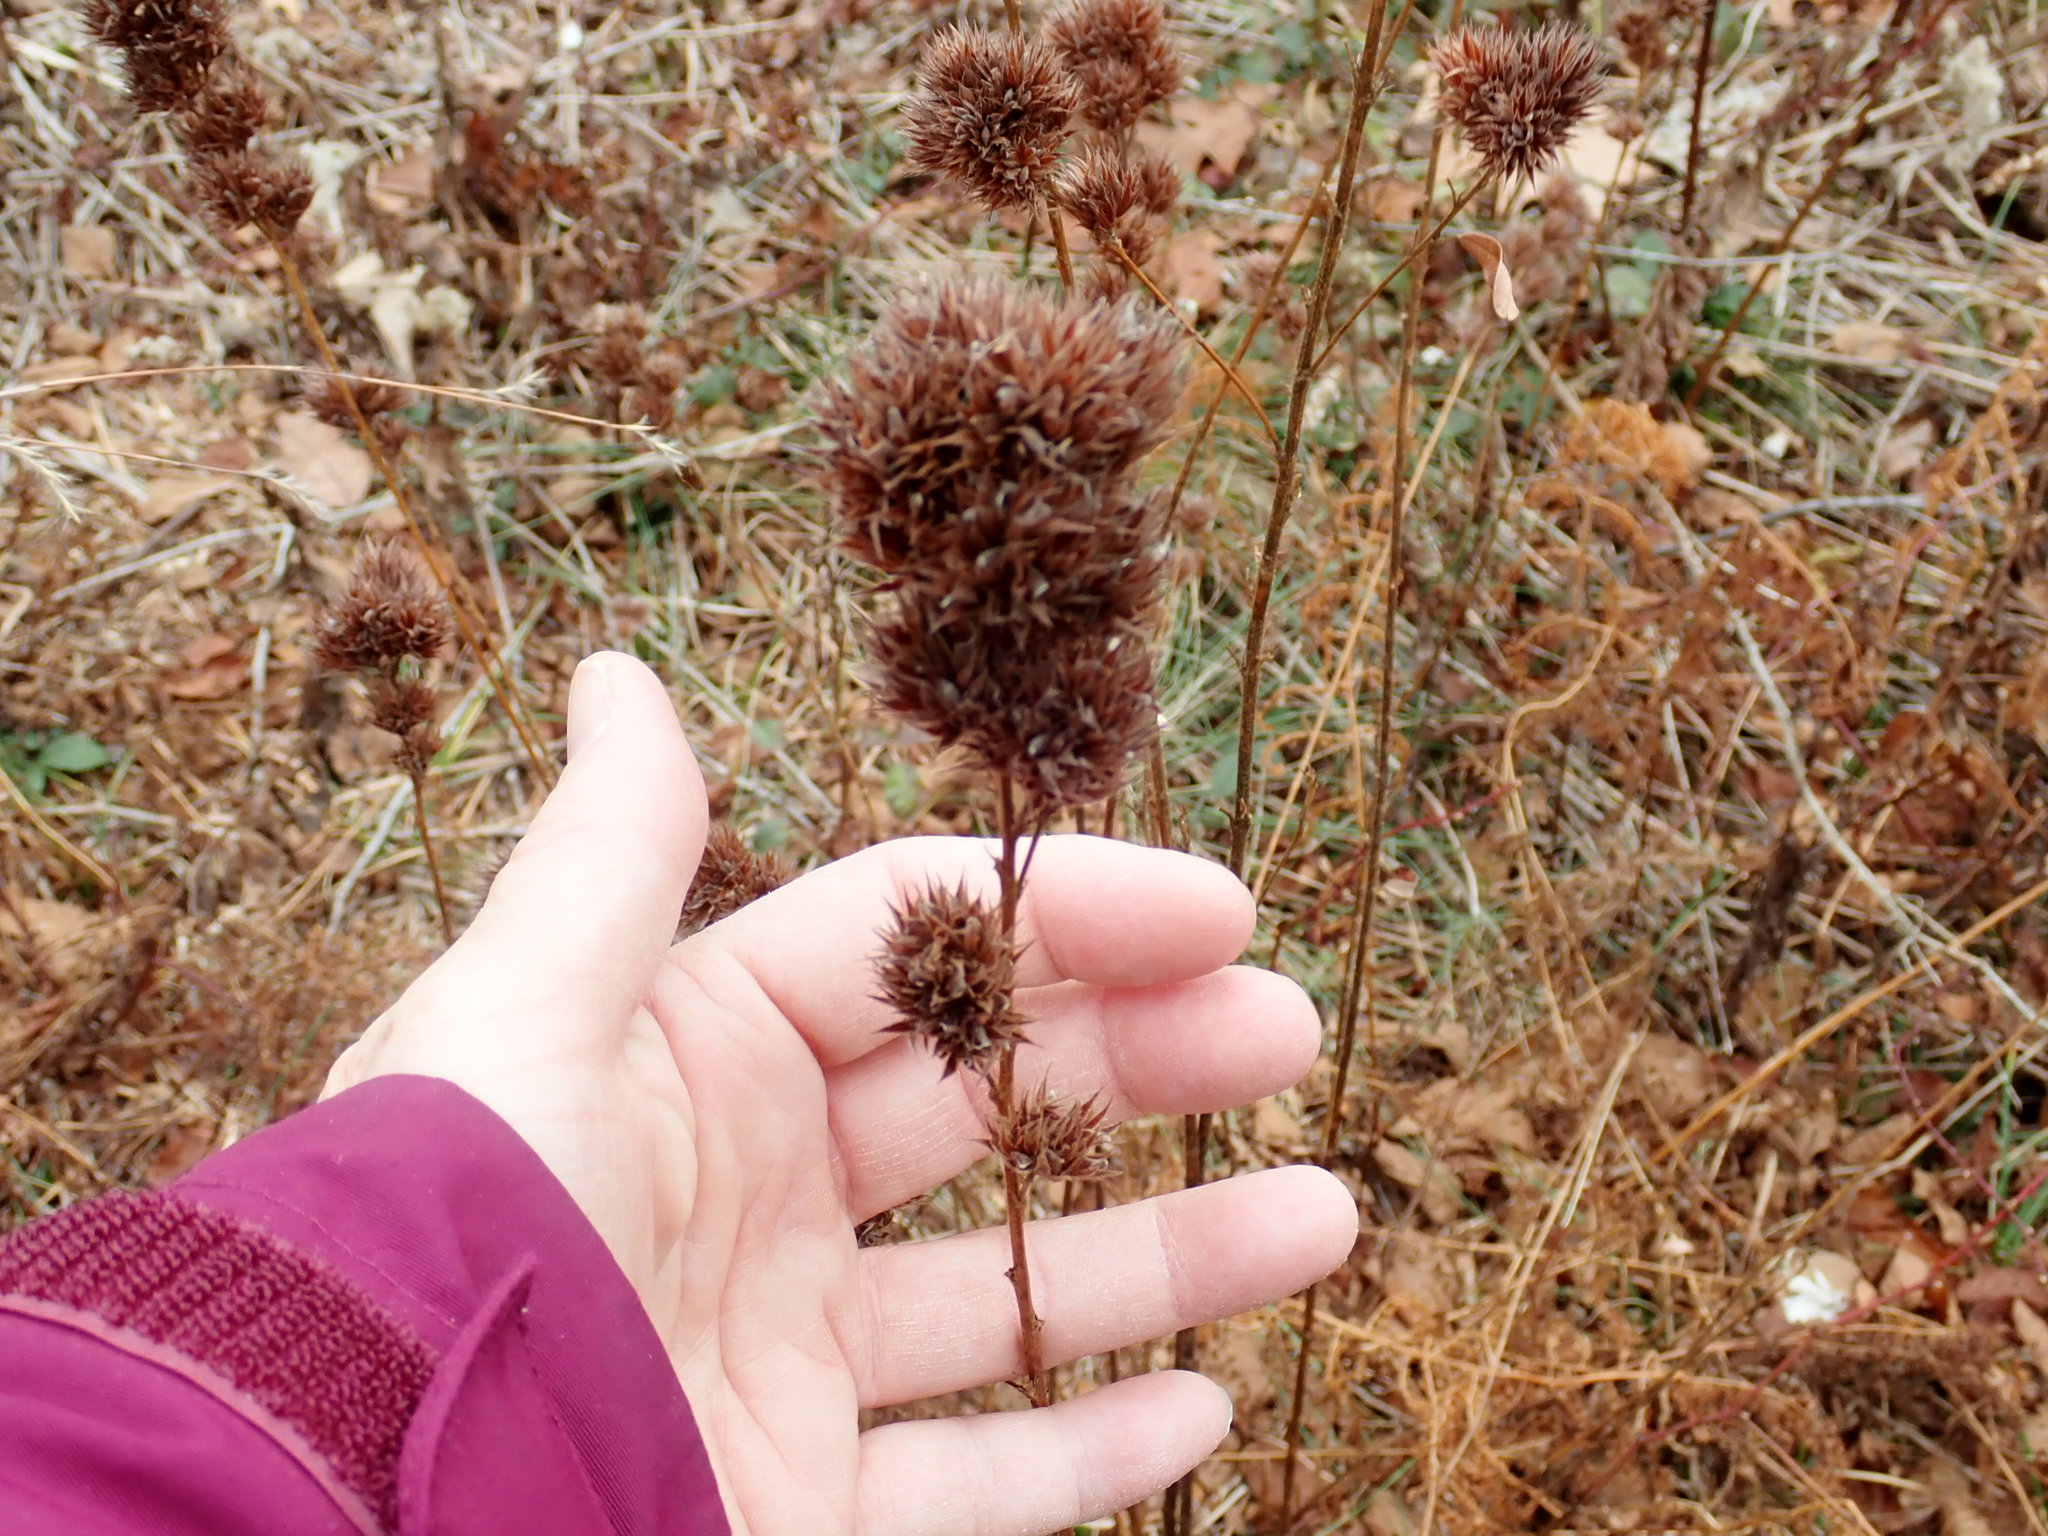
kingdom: Plantae
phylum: Tracheophyta
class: Magnoliopsida
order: Fabales
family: Fabaceae
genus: Lespedeza
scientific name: Lespedeza capitata
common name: Dusty clover
